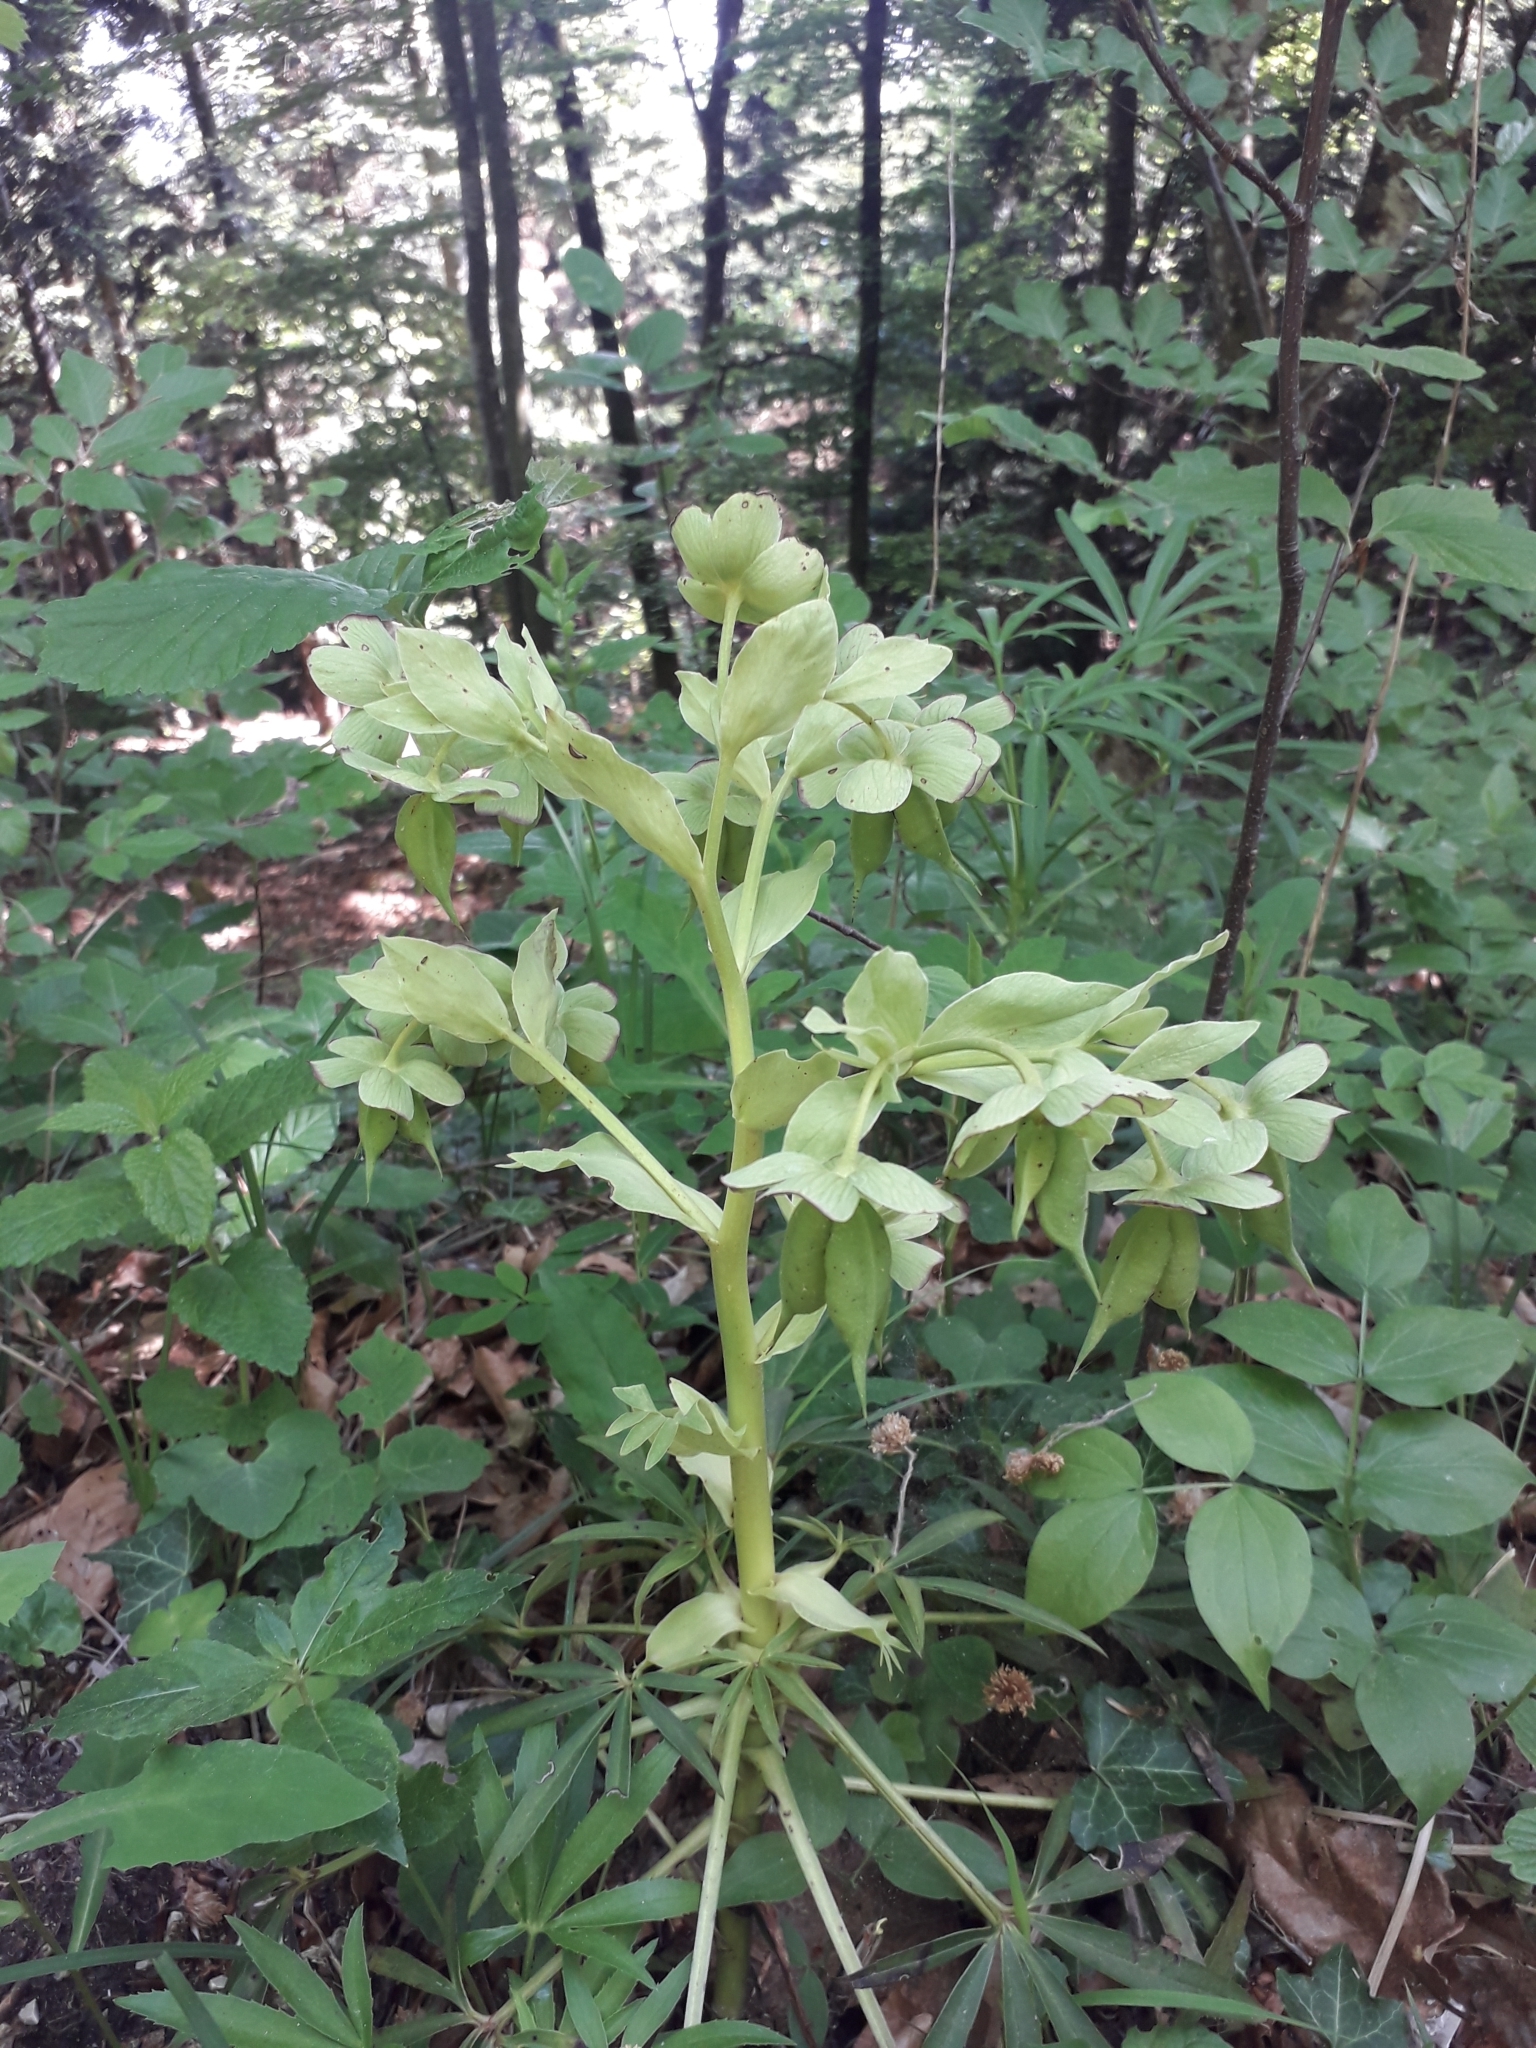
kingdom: Plantae
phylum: Tracheophyta
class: Magnoliopsida
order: Ranunculales
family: Ranunculaceae
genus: Helleborus
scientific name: Helleborus foetidus
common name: Stinking hellebore
